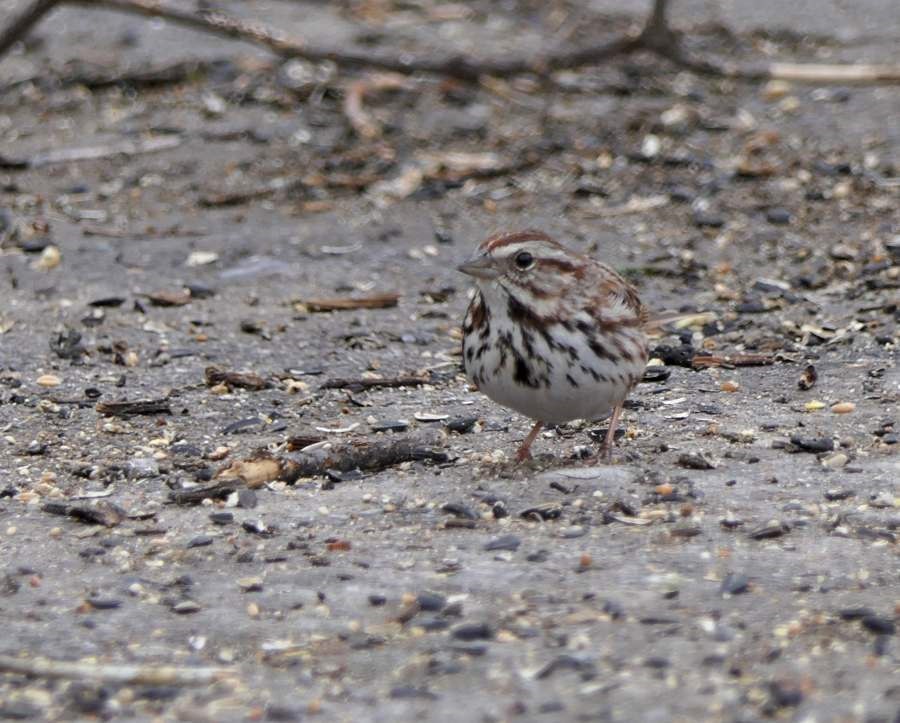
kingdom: Animalia
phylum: Chordata
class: Aves
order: Passeriformes
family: Passerellidae
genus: Melospiza
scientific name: Melospiza melodia
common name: Song sparrow
